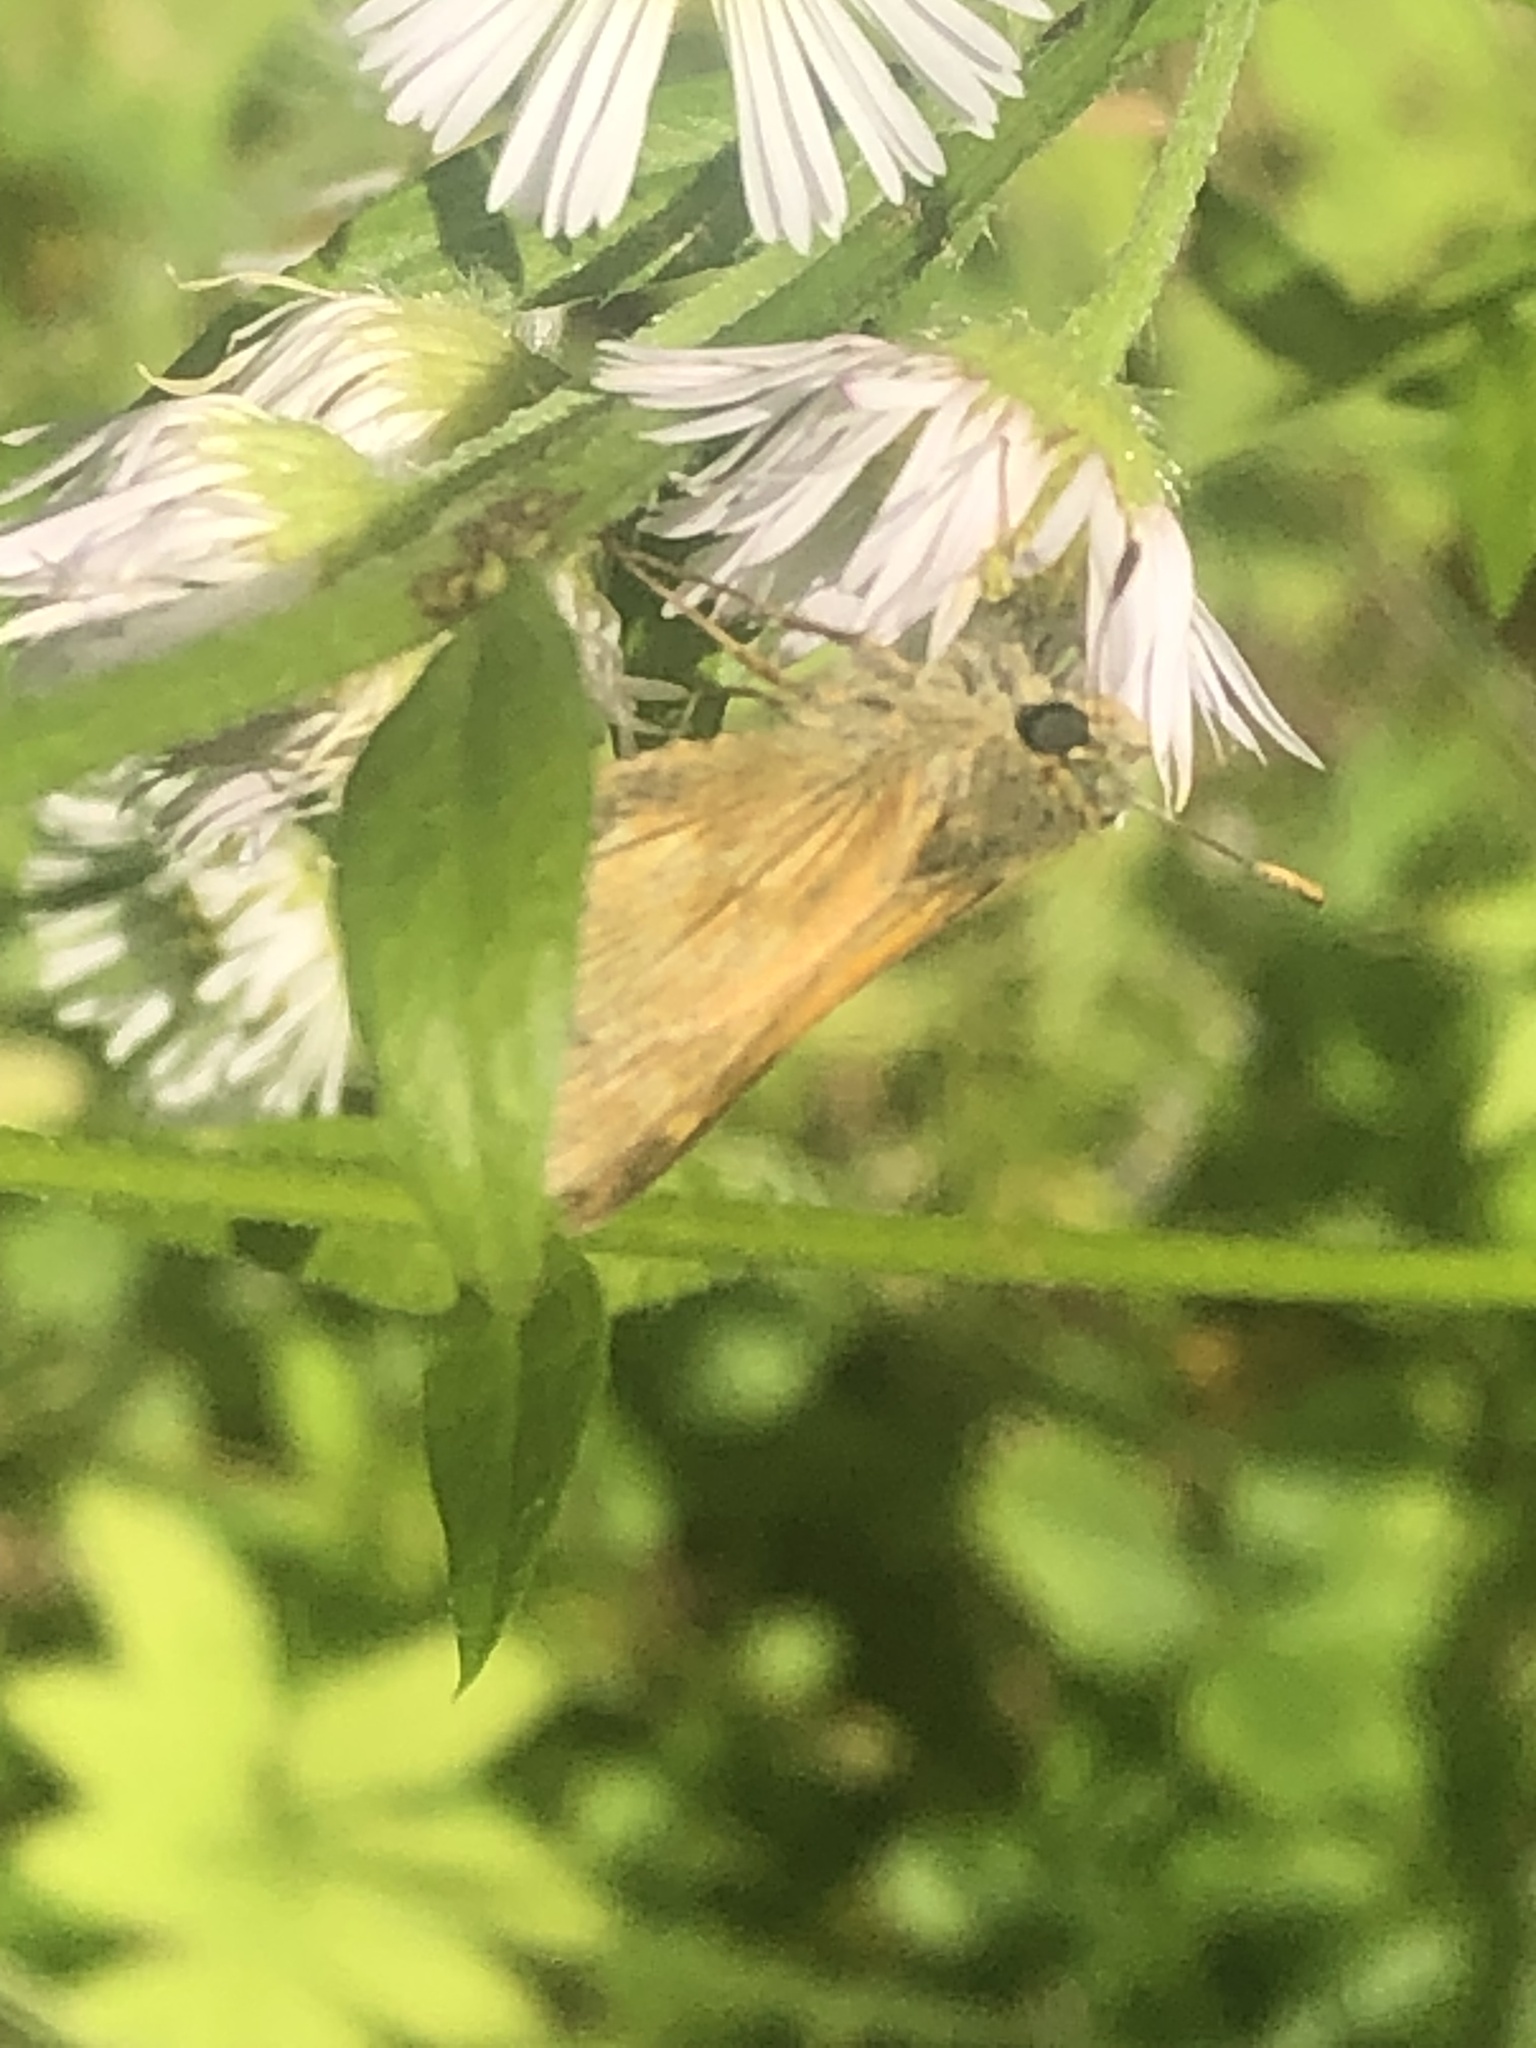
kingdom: Animalia
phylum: Arthropoda
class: Insecta
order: Lepidoptera
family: Hesperiidae
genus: Polites
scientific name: Polites mystic
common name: Long dash
